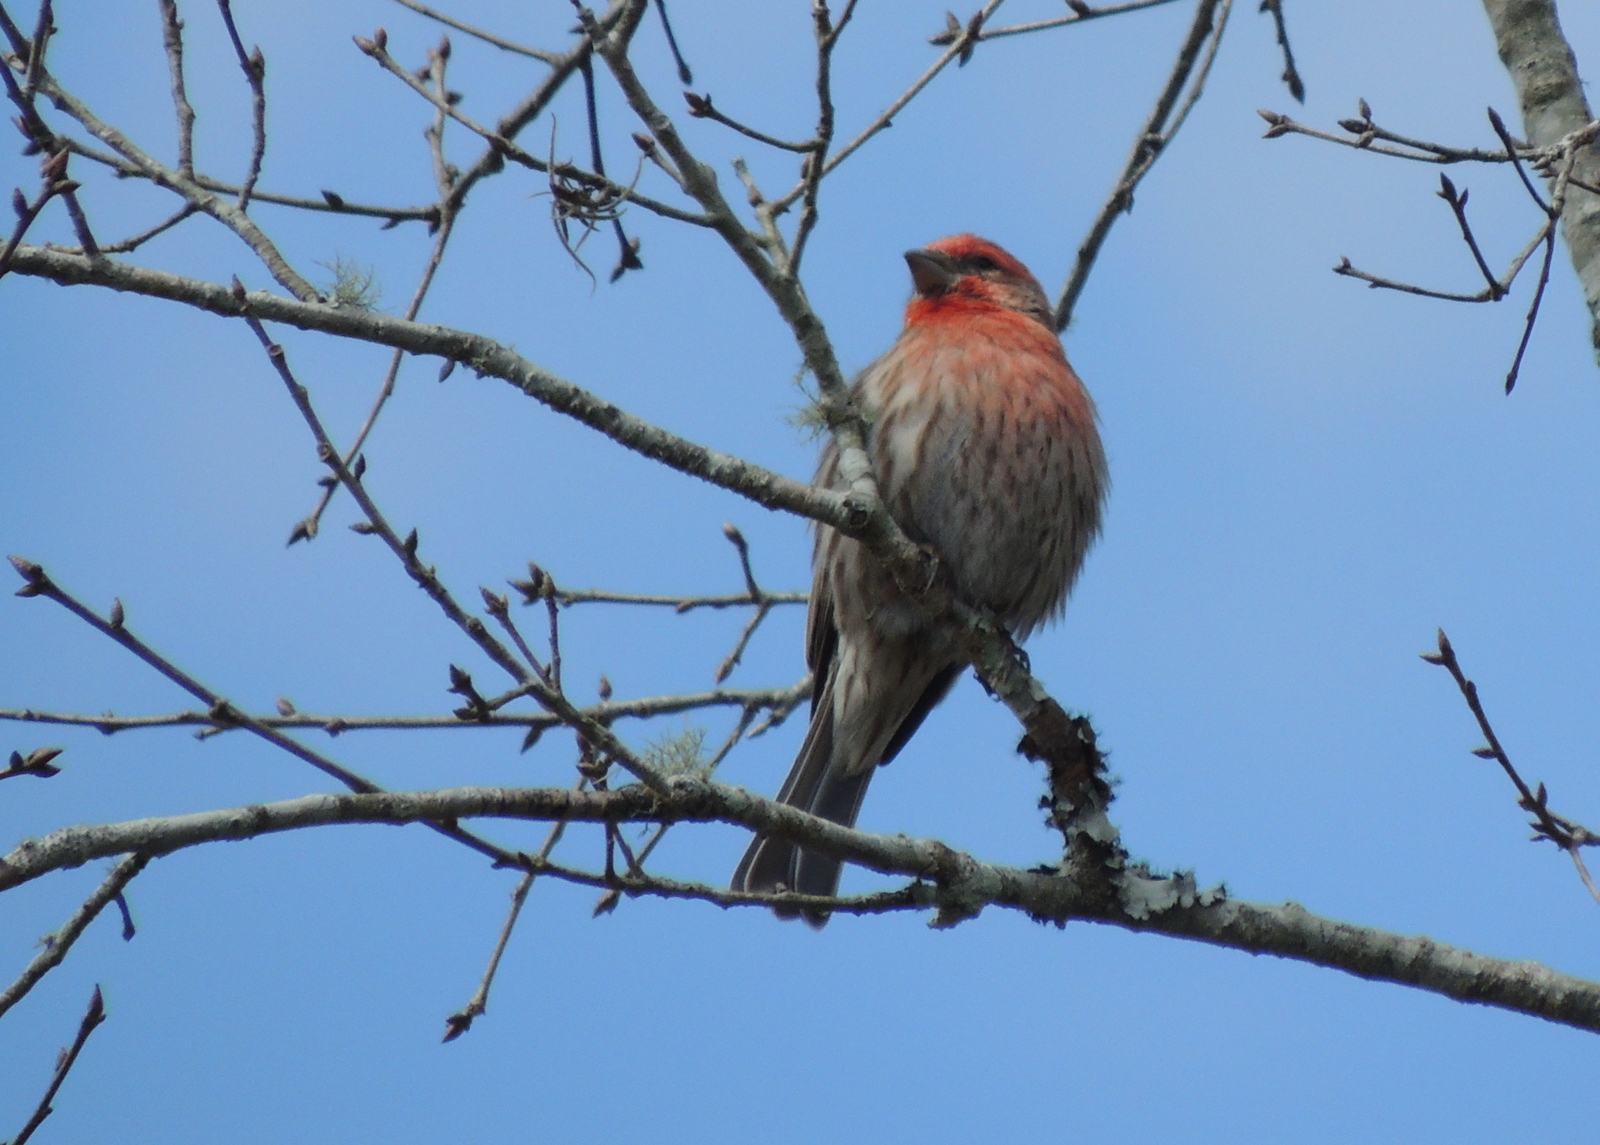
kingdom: Animalia
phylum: Chordata
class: Aves
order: Passeriformes
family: Fringillidae
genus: Haemorhous
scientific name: Haemorhous mexicanus
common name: House finch
